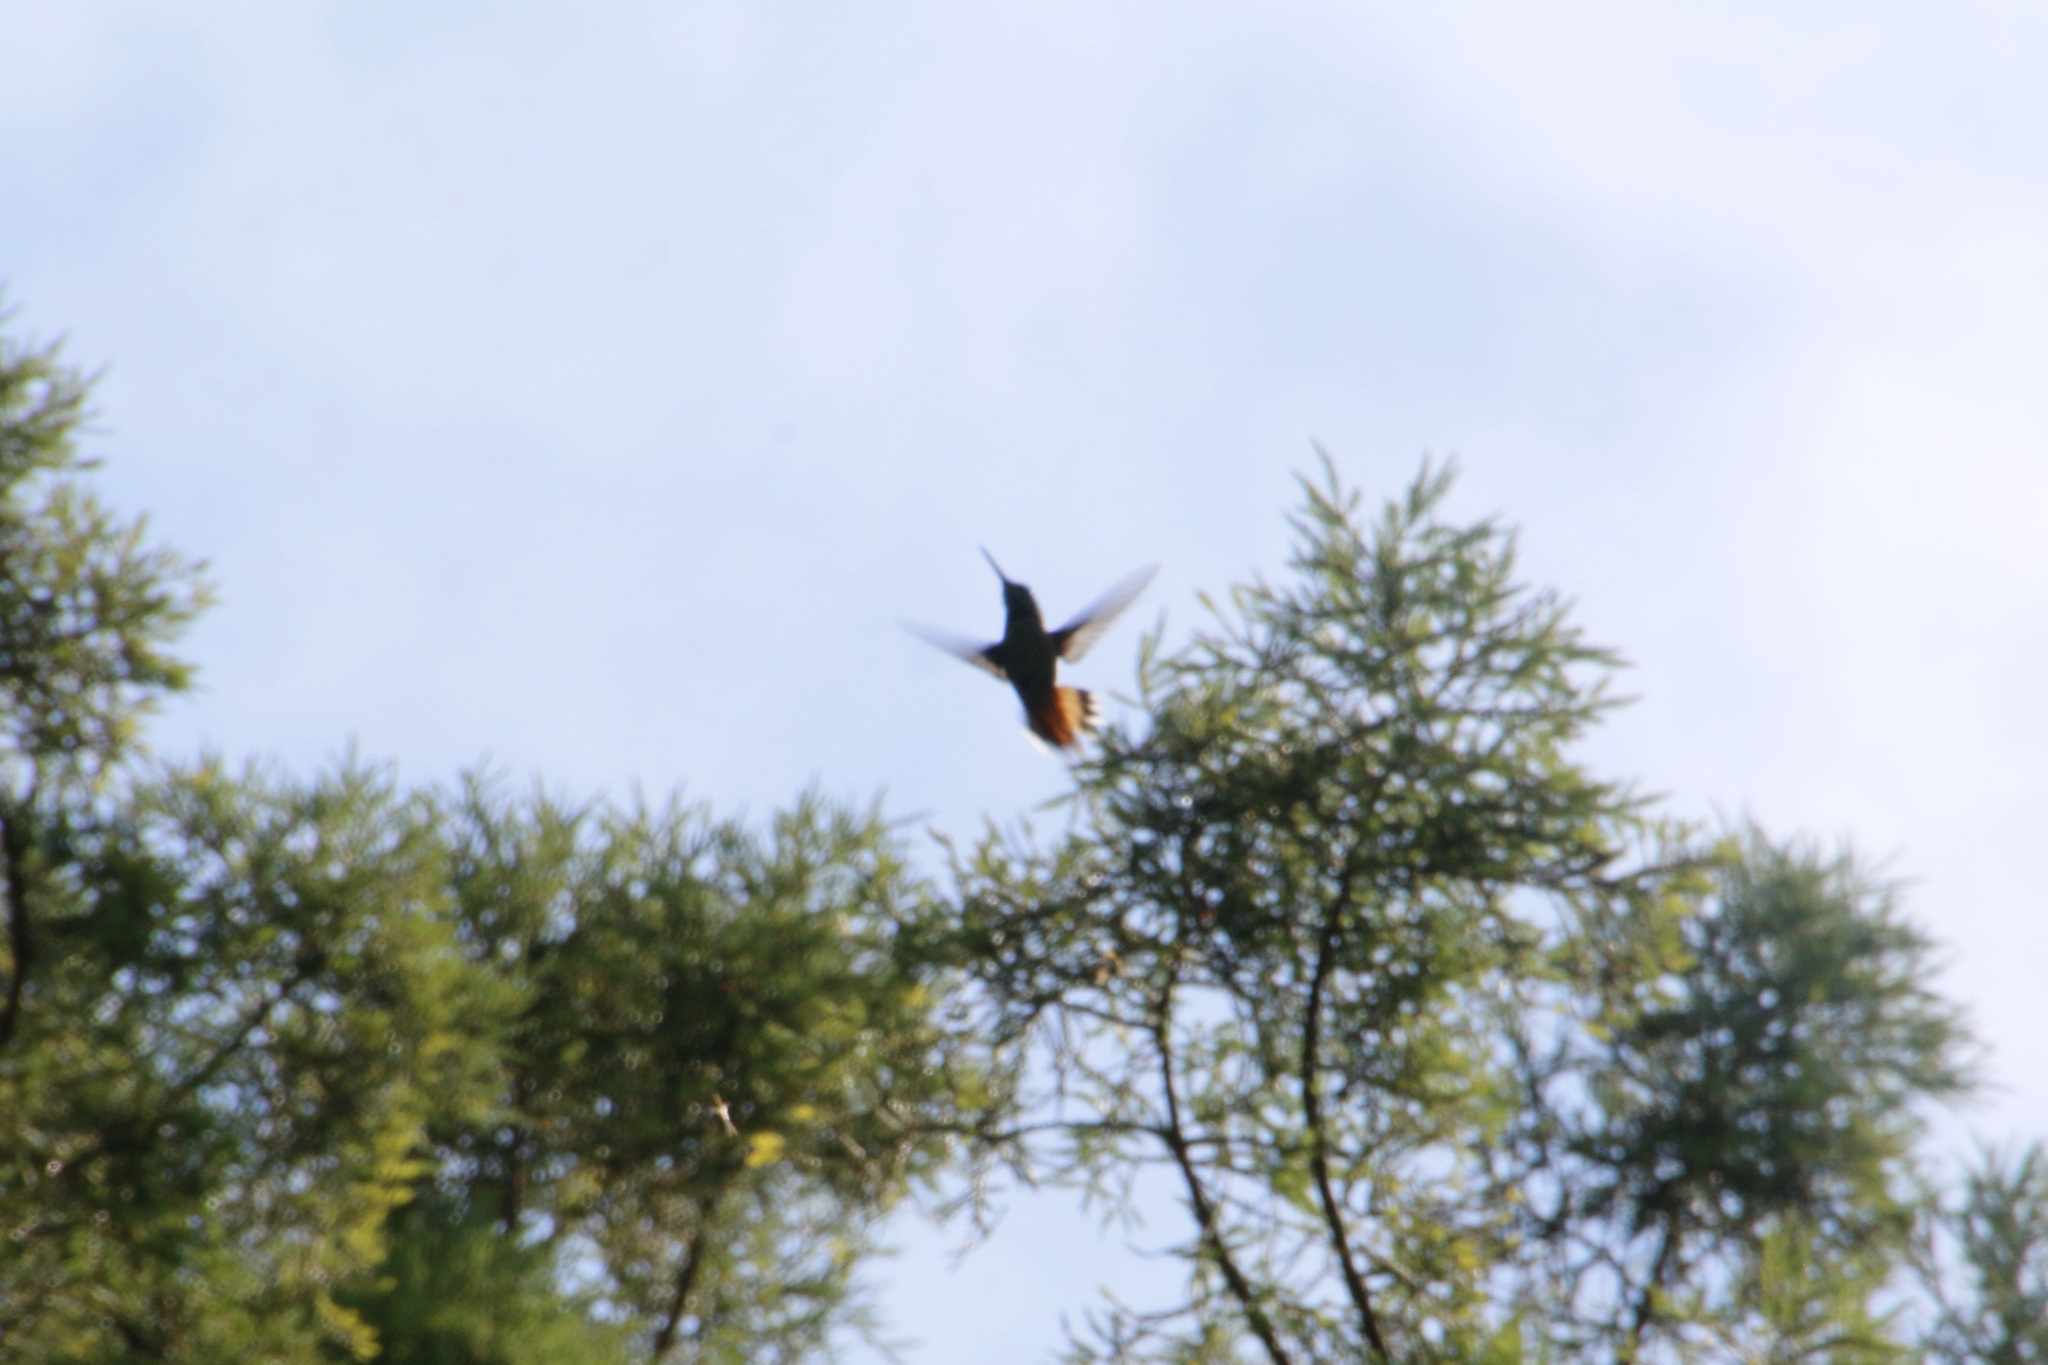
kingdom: Animalia
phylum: Chordata
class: Aves
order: Apodiformes
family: Trochilidae
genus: Selasphorus
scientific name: Selasphorus
